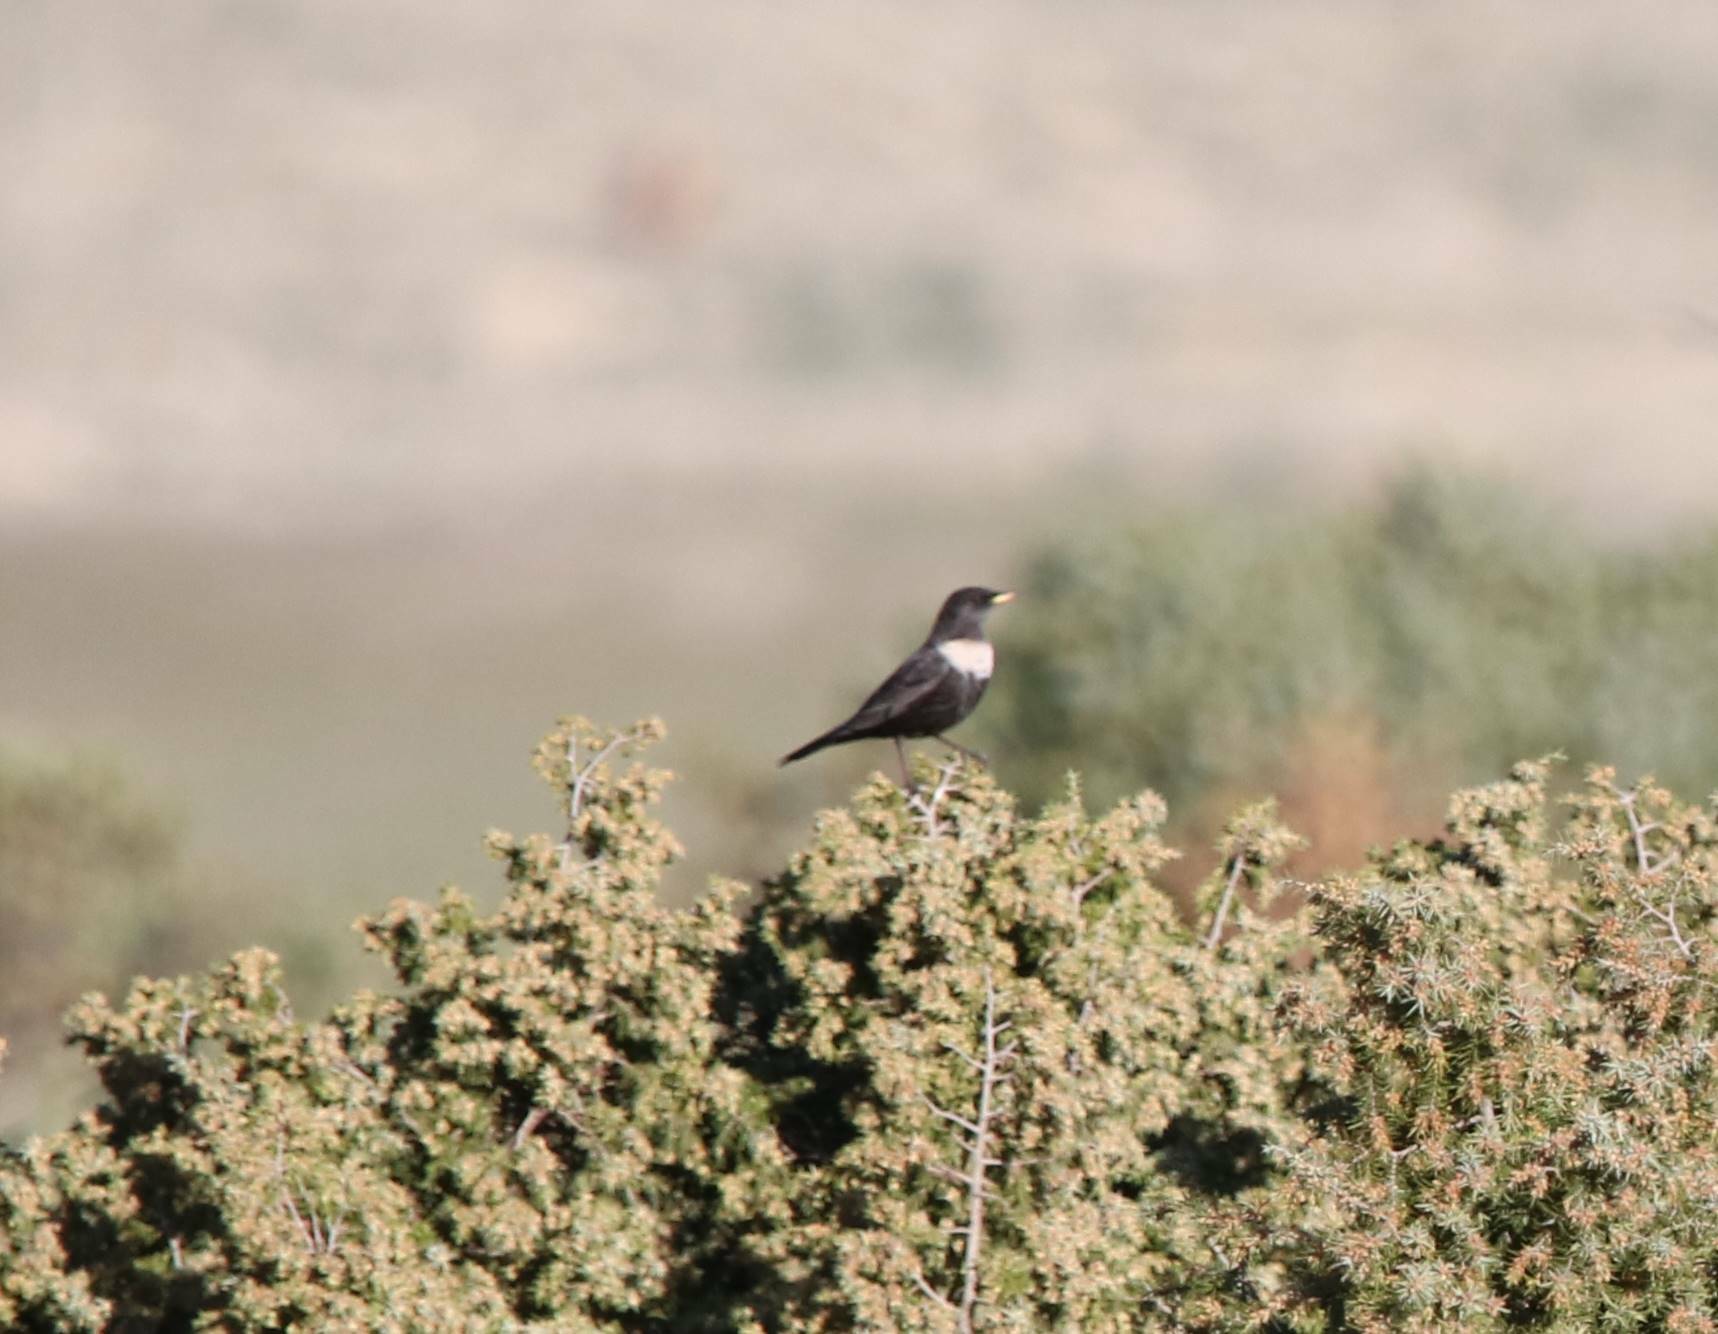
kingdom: Animalia
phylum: Chordata
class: Aves
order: Passeriformes
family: Turdidae
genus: Turdus
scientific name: Turdus torquatus
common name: Ring ouzel
